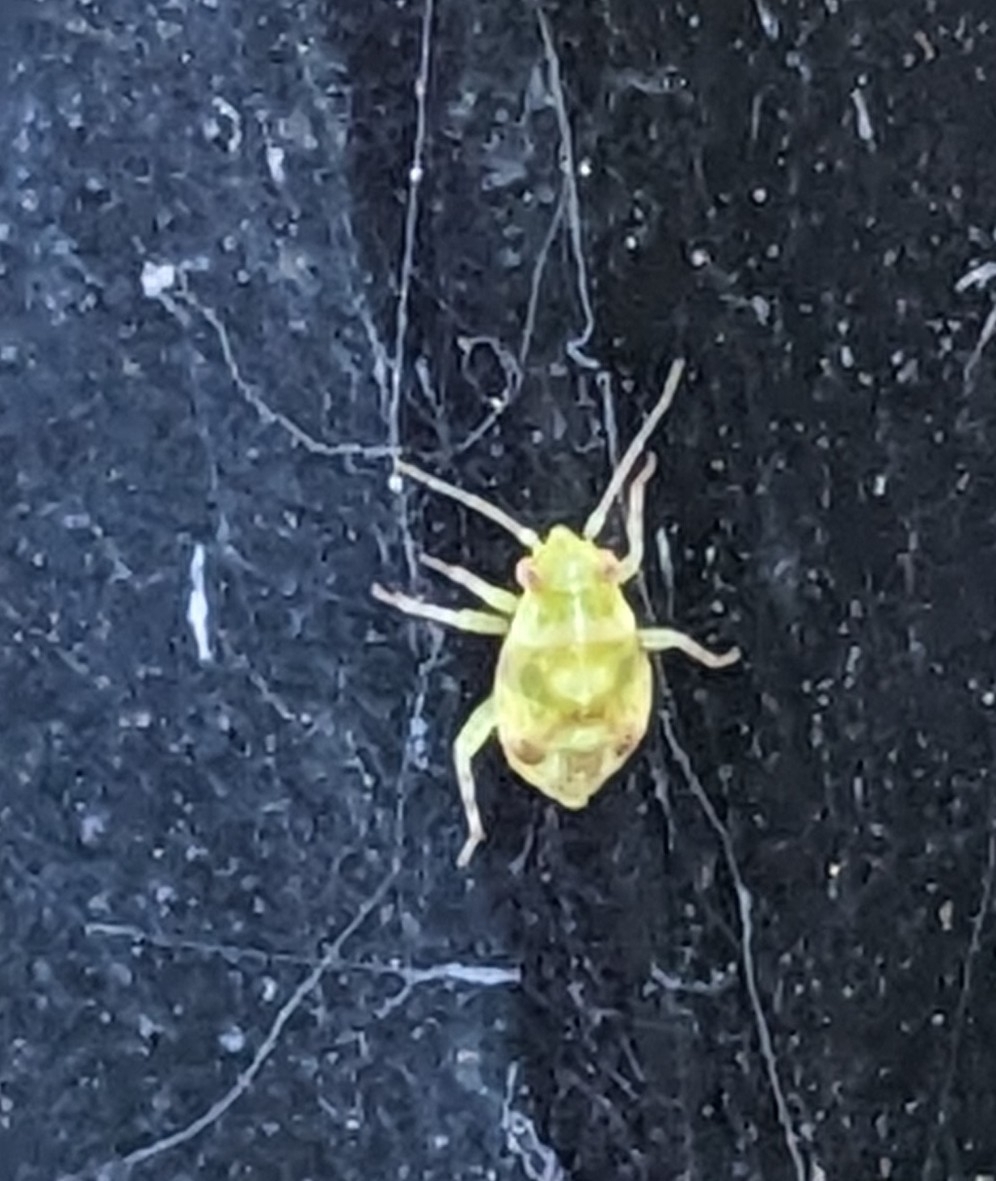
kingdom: Animalia
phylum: Arthropoda
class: Insecta
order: Hemiptera
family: Miridae
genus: Tropidosteptes
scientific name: Tropidosteptes quercicola
